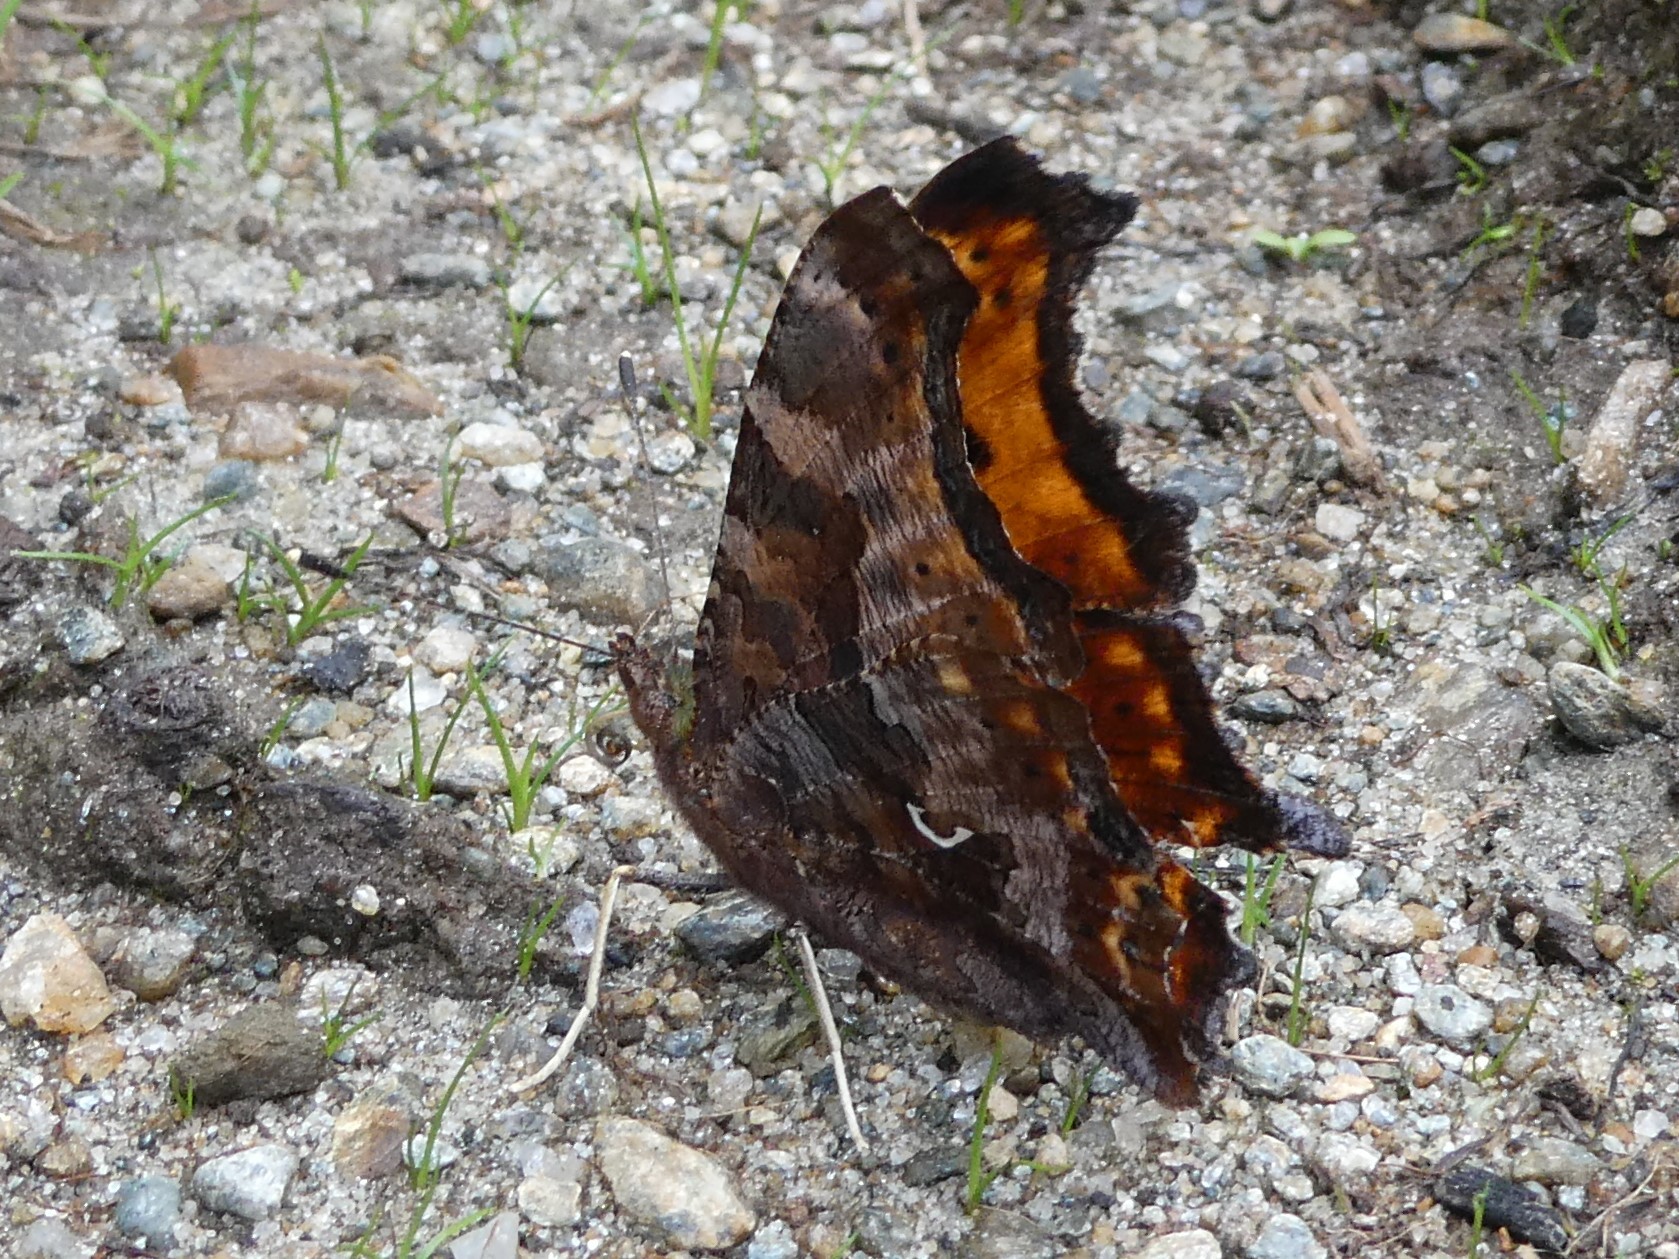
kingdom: Animalia
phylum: Arthropoda
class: Insecta
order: Lepidoptera
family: Nymphalidae
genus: Polygonia
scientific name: Polygonia comma
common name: Eastern comma
